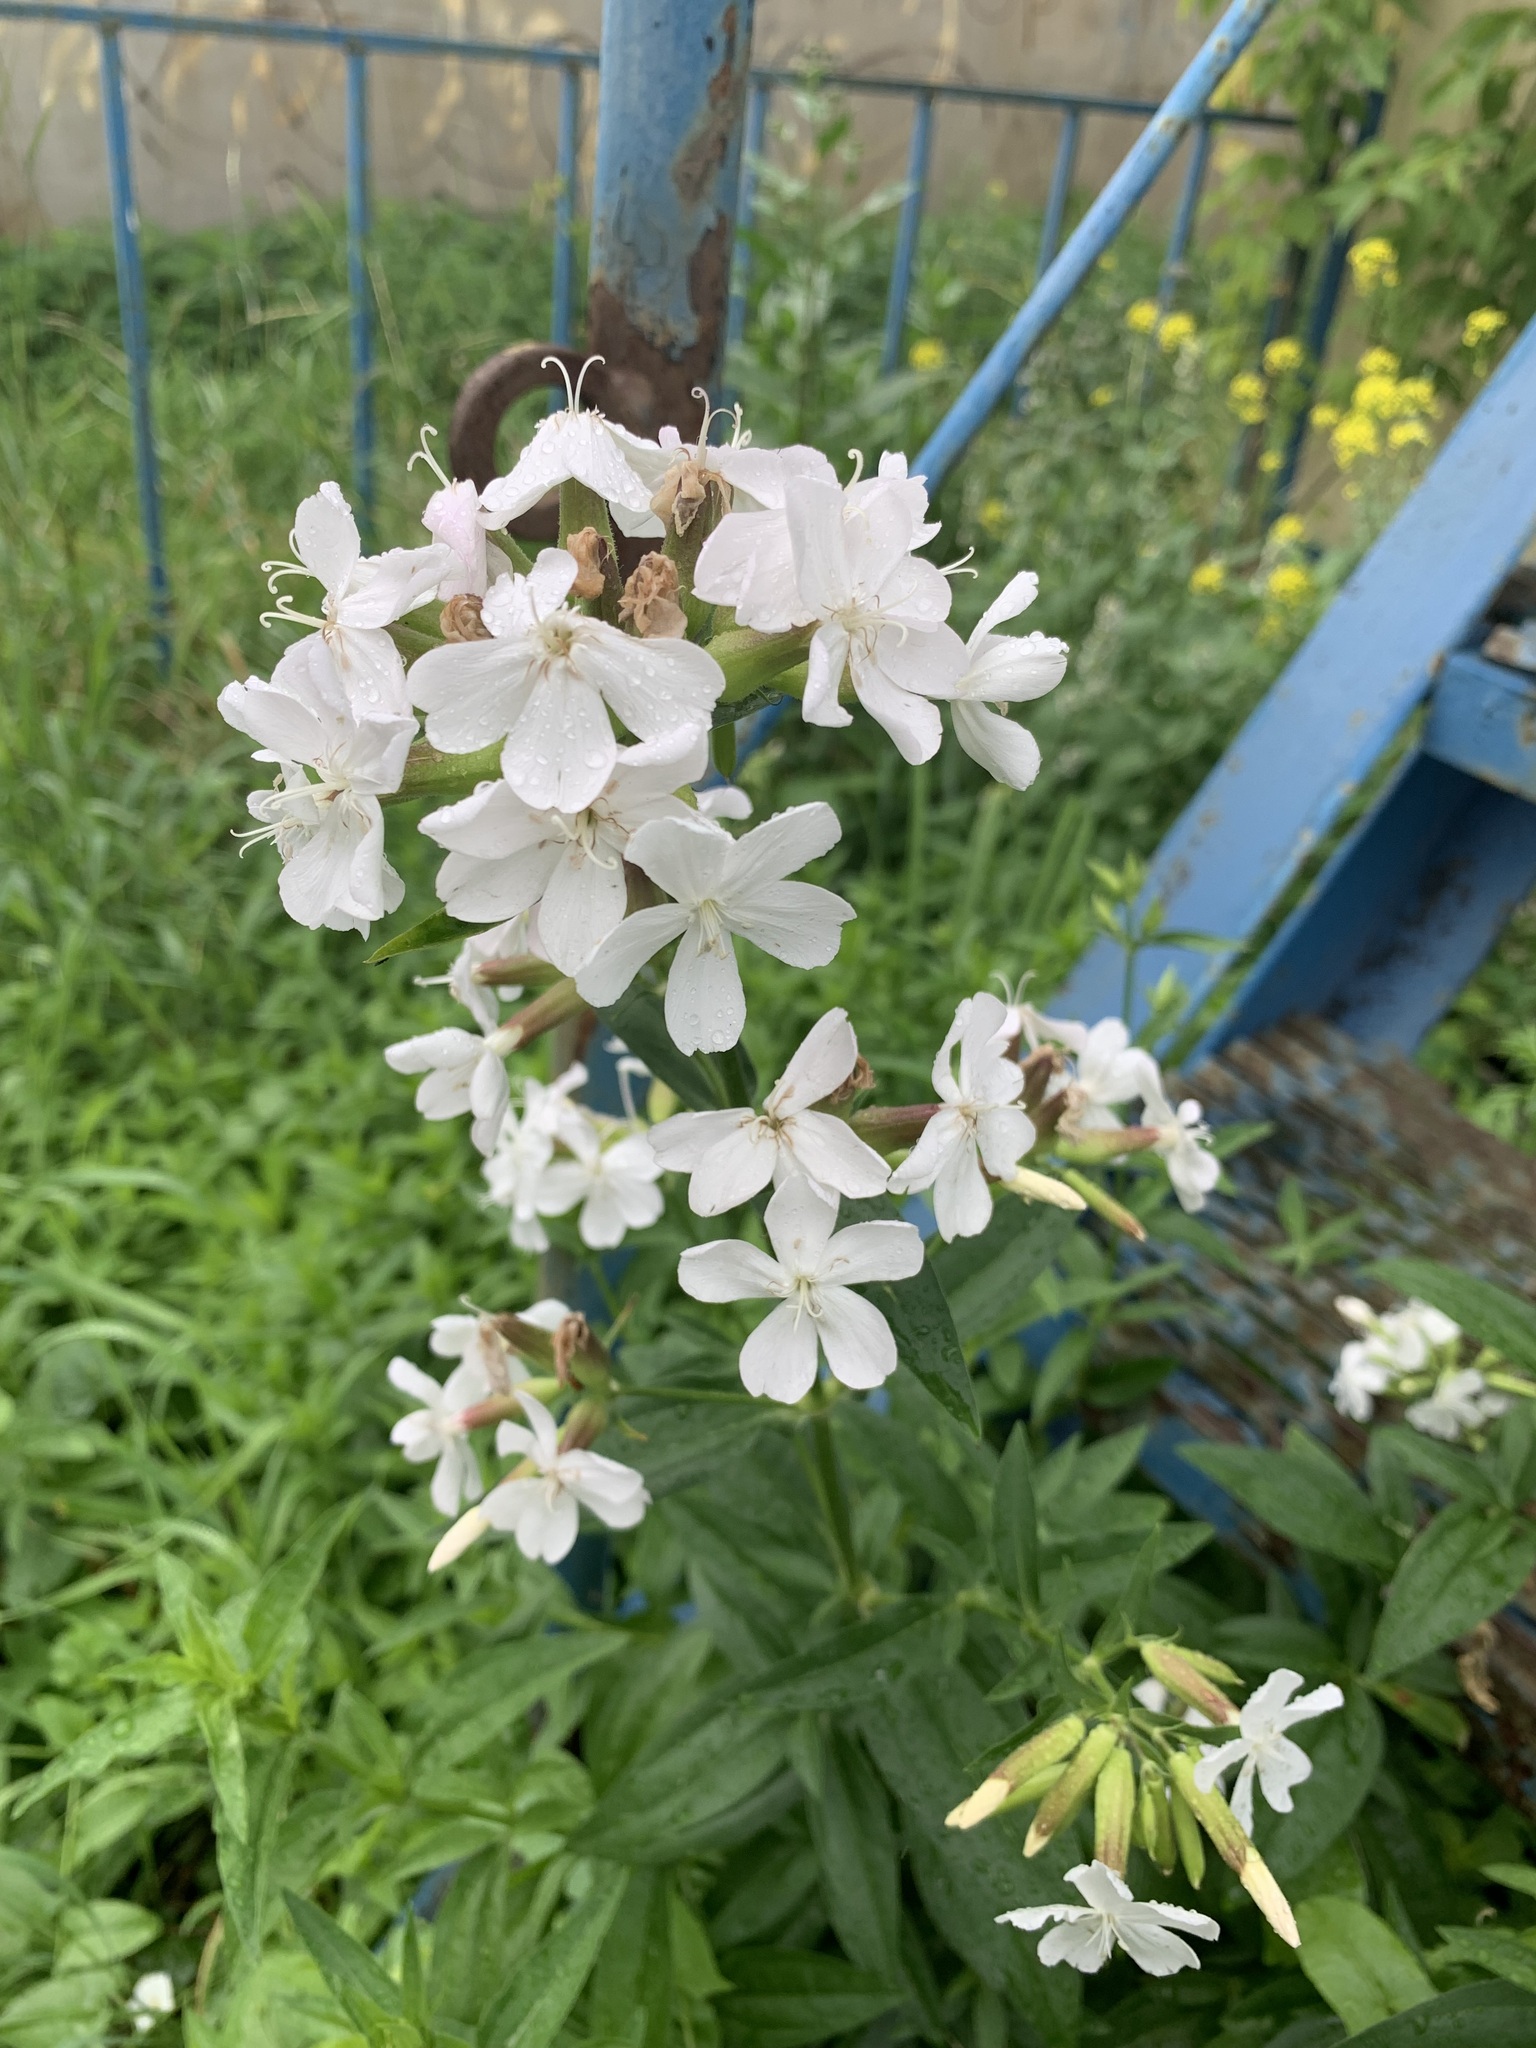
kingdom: Plantae
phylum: Tracheophyta
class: Magnoliopsida
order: Caryophyllales
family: Caryophyllaceae
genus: Saponaria
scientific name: Saponaria officinalis
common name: Soapwort
